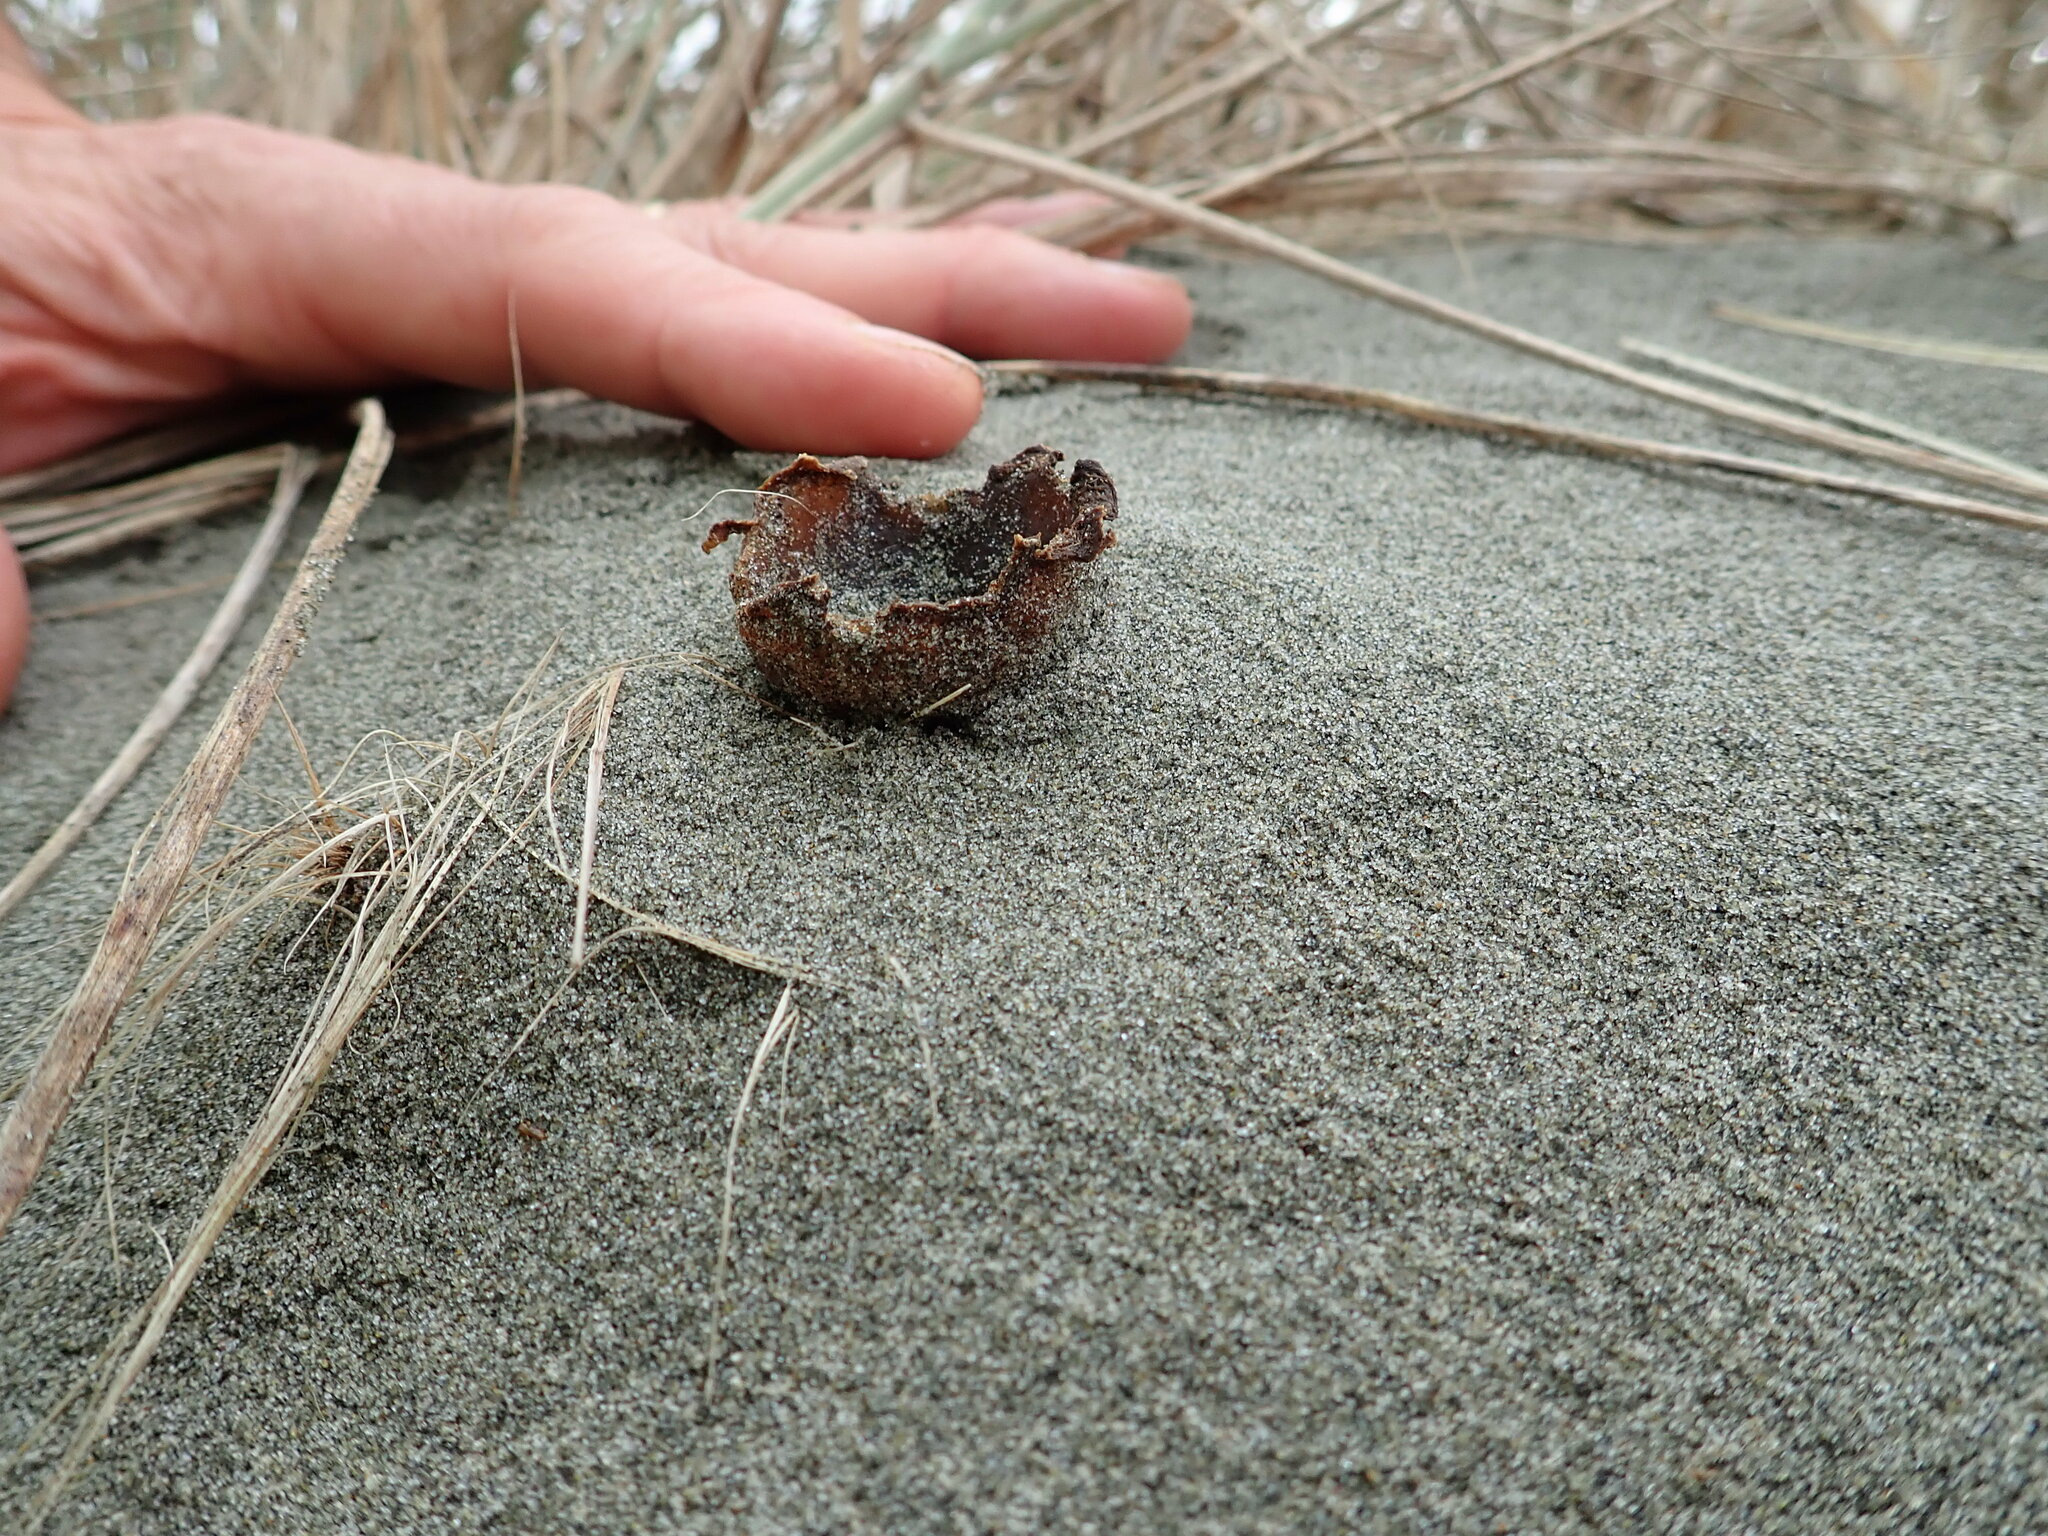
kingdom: Fungi
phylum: Ascomycota
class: Pezizomycetes
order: Pezizales
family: Pezizaceae
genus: Peziza
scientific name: Peziza oceanica
